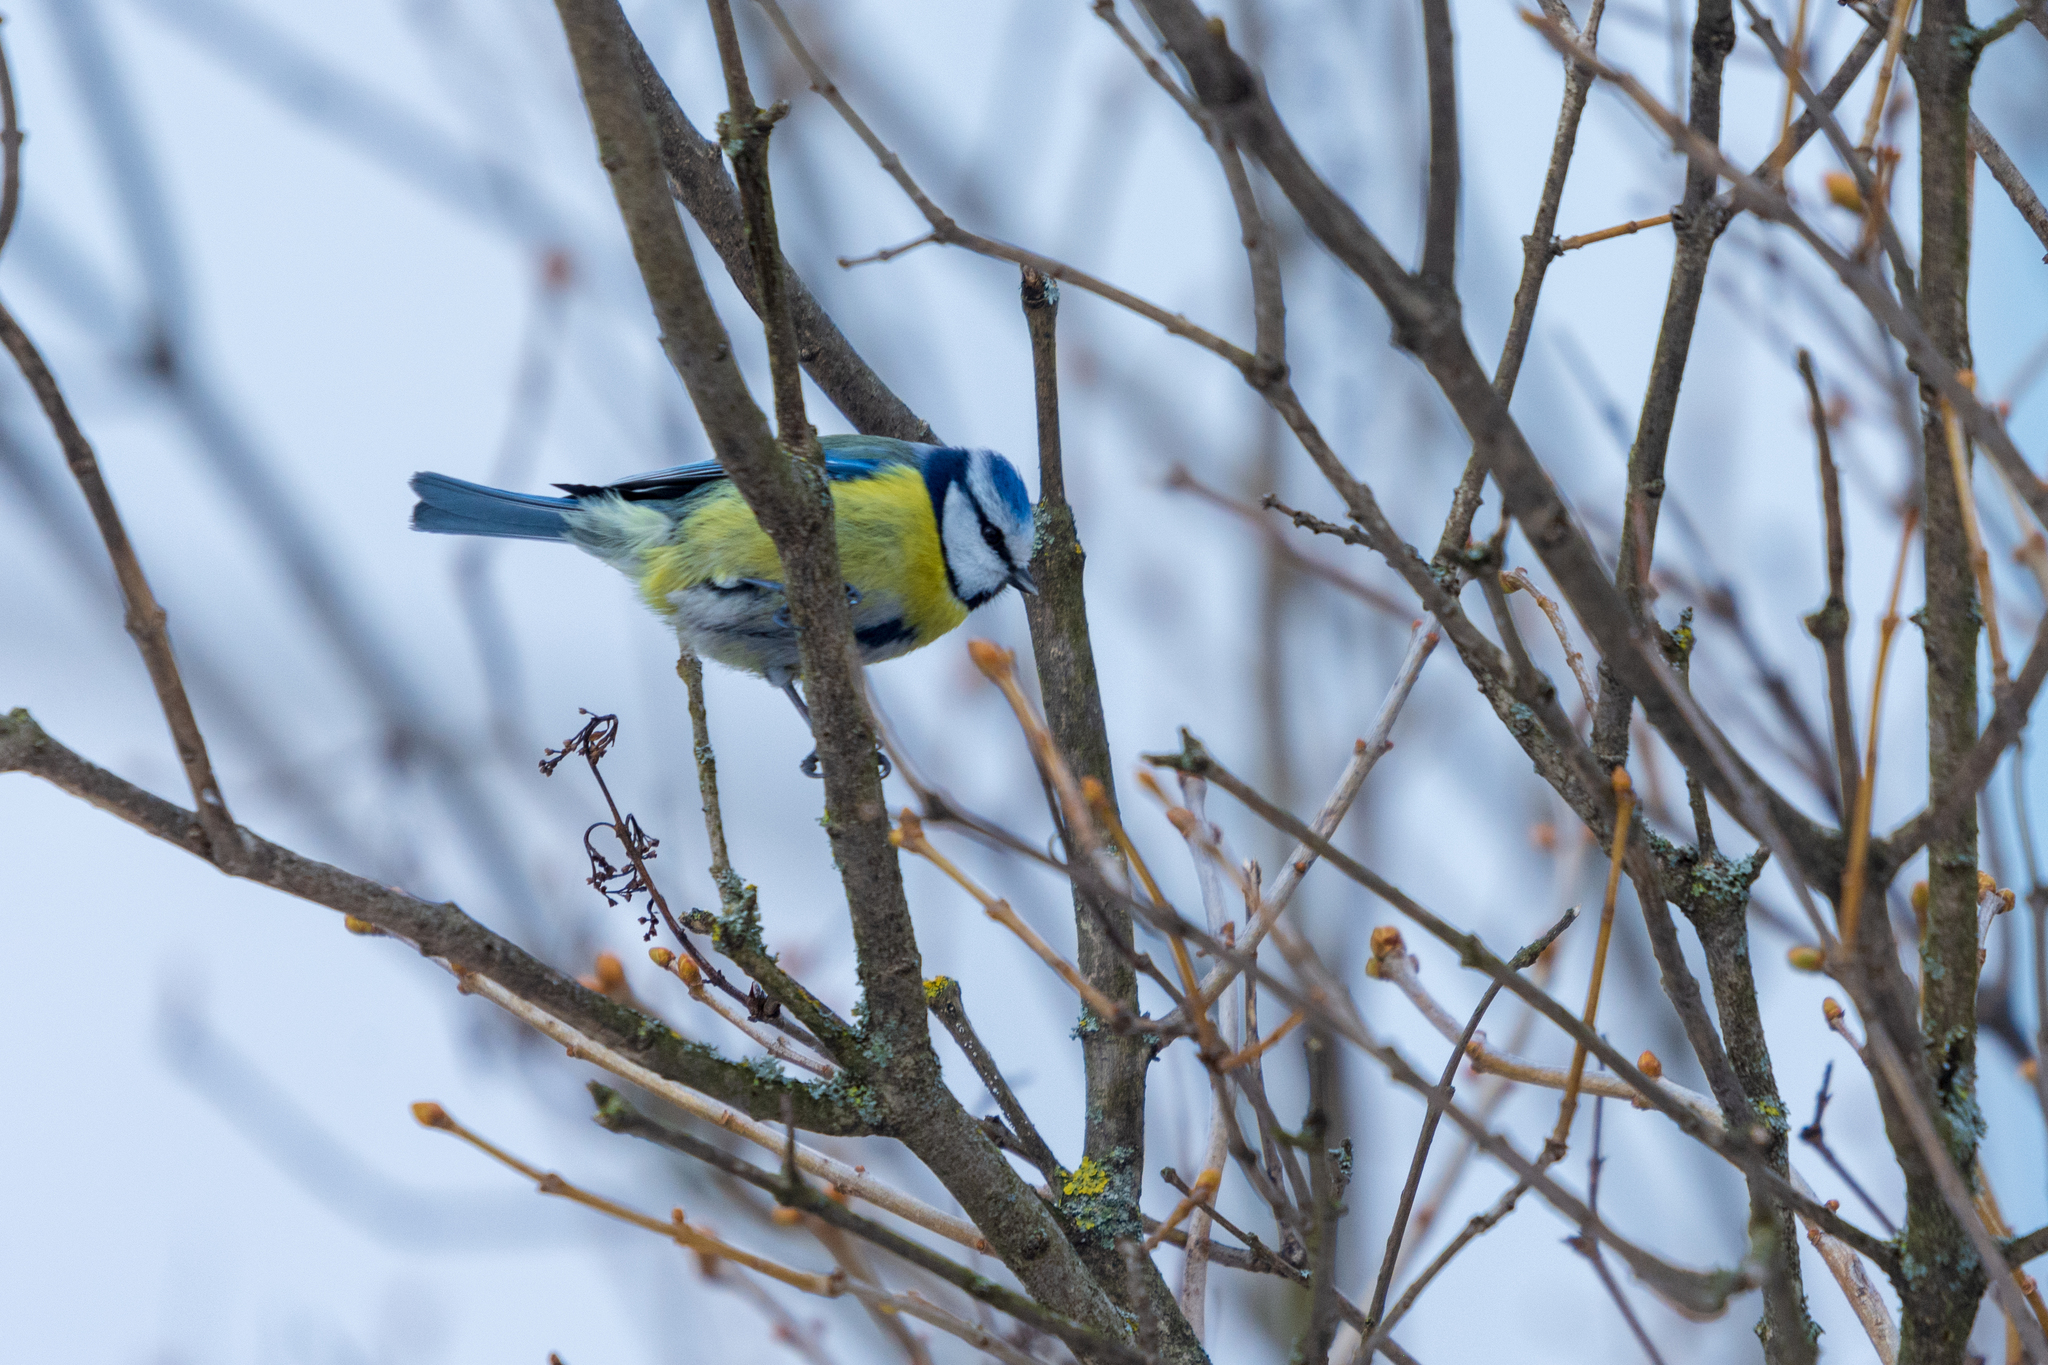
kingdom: Animalia
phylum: Chordata
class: Aves
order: Passeriformes
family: Paridae
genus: Cyanistes
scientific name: Cyanistes caeruleus
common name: Eurasian blue tit
